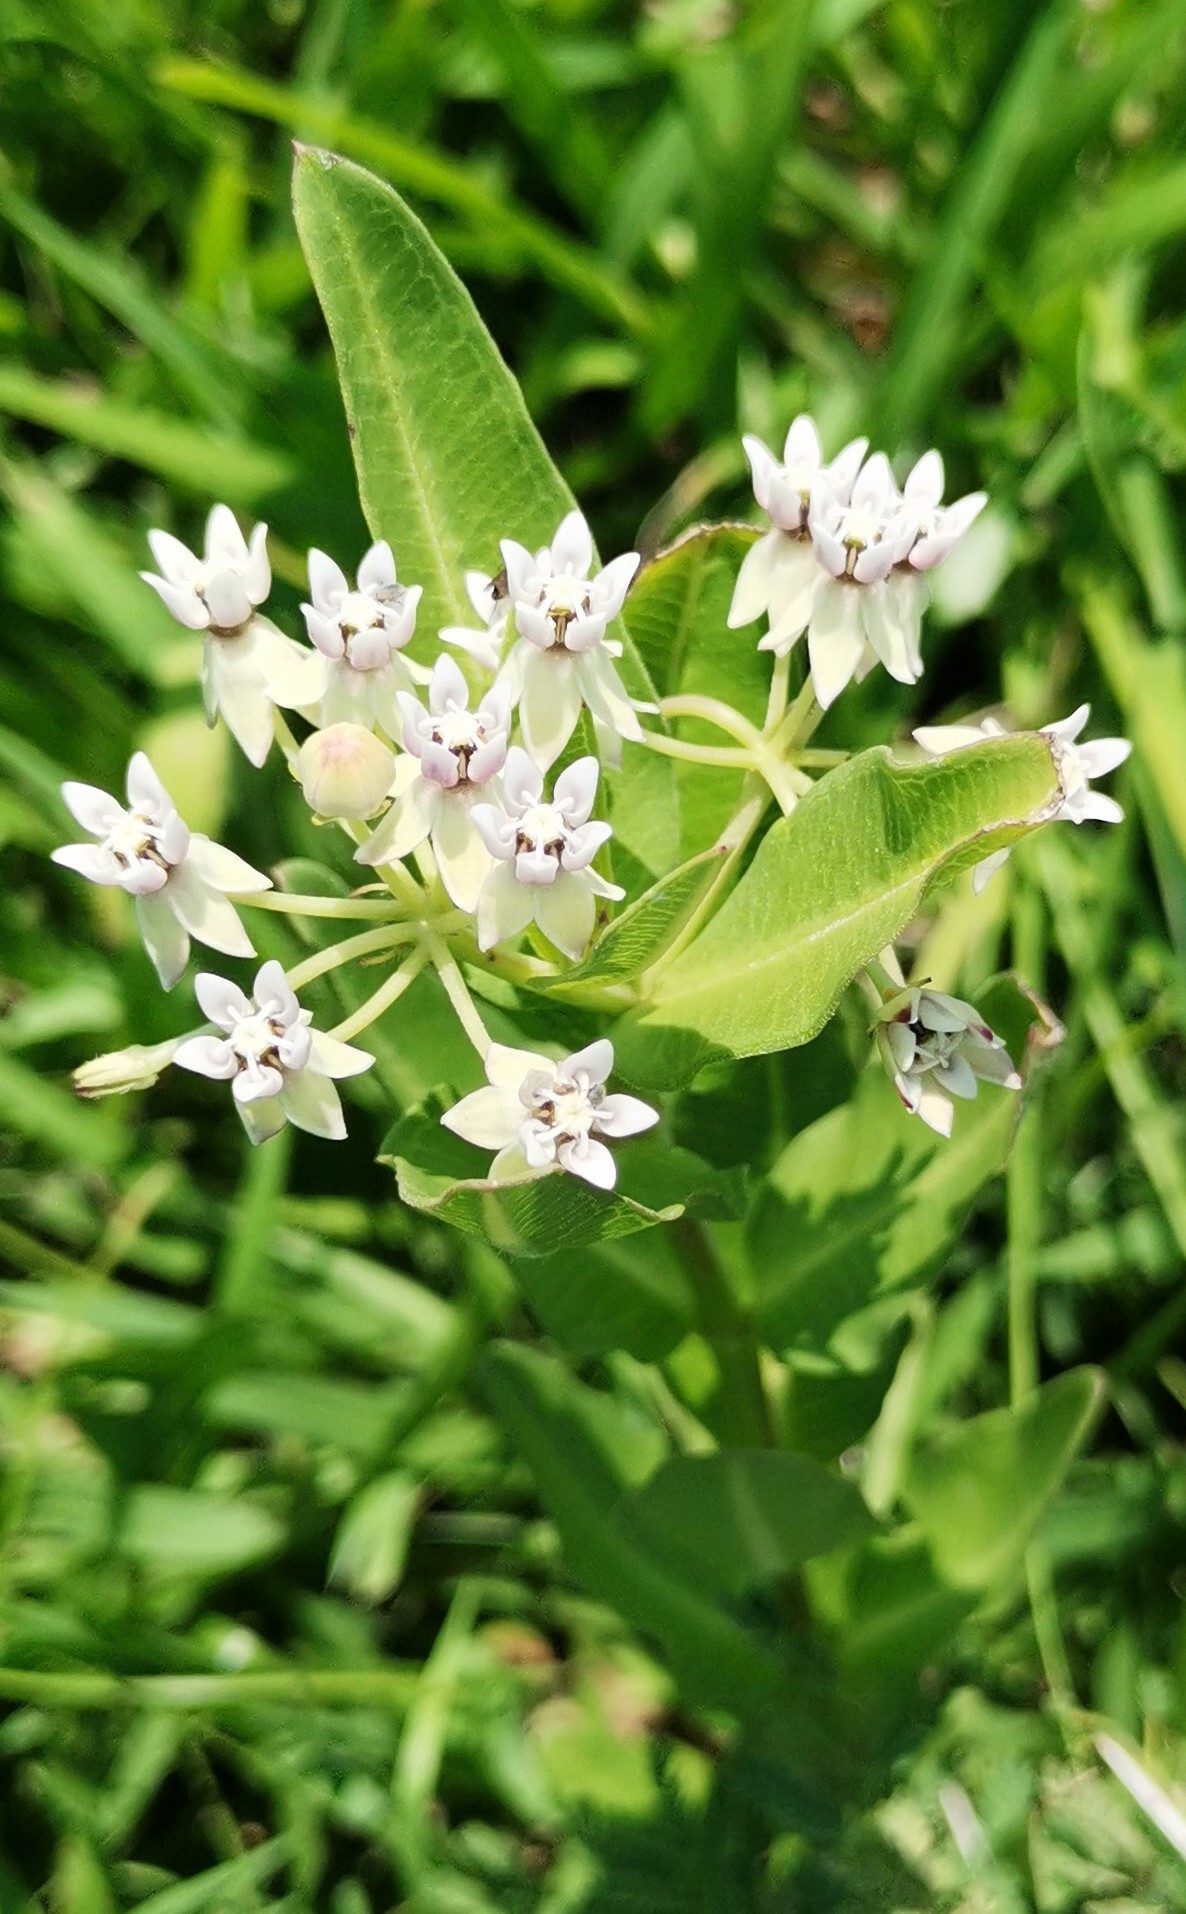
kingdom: Plantae
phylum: Tracheophyta
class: Magnoliopsida
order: Gentianales
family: Apocynaceae
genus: Asclepias
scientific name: Asclepias pratensis
